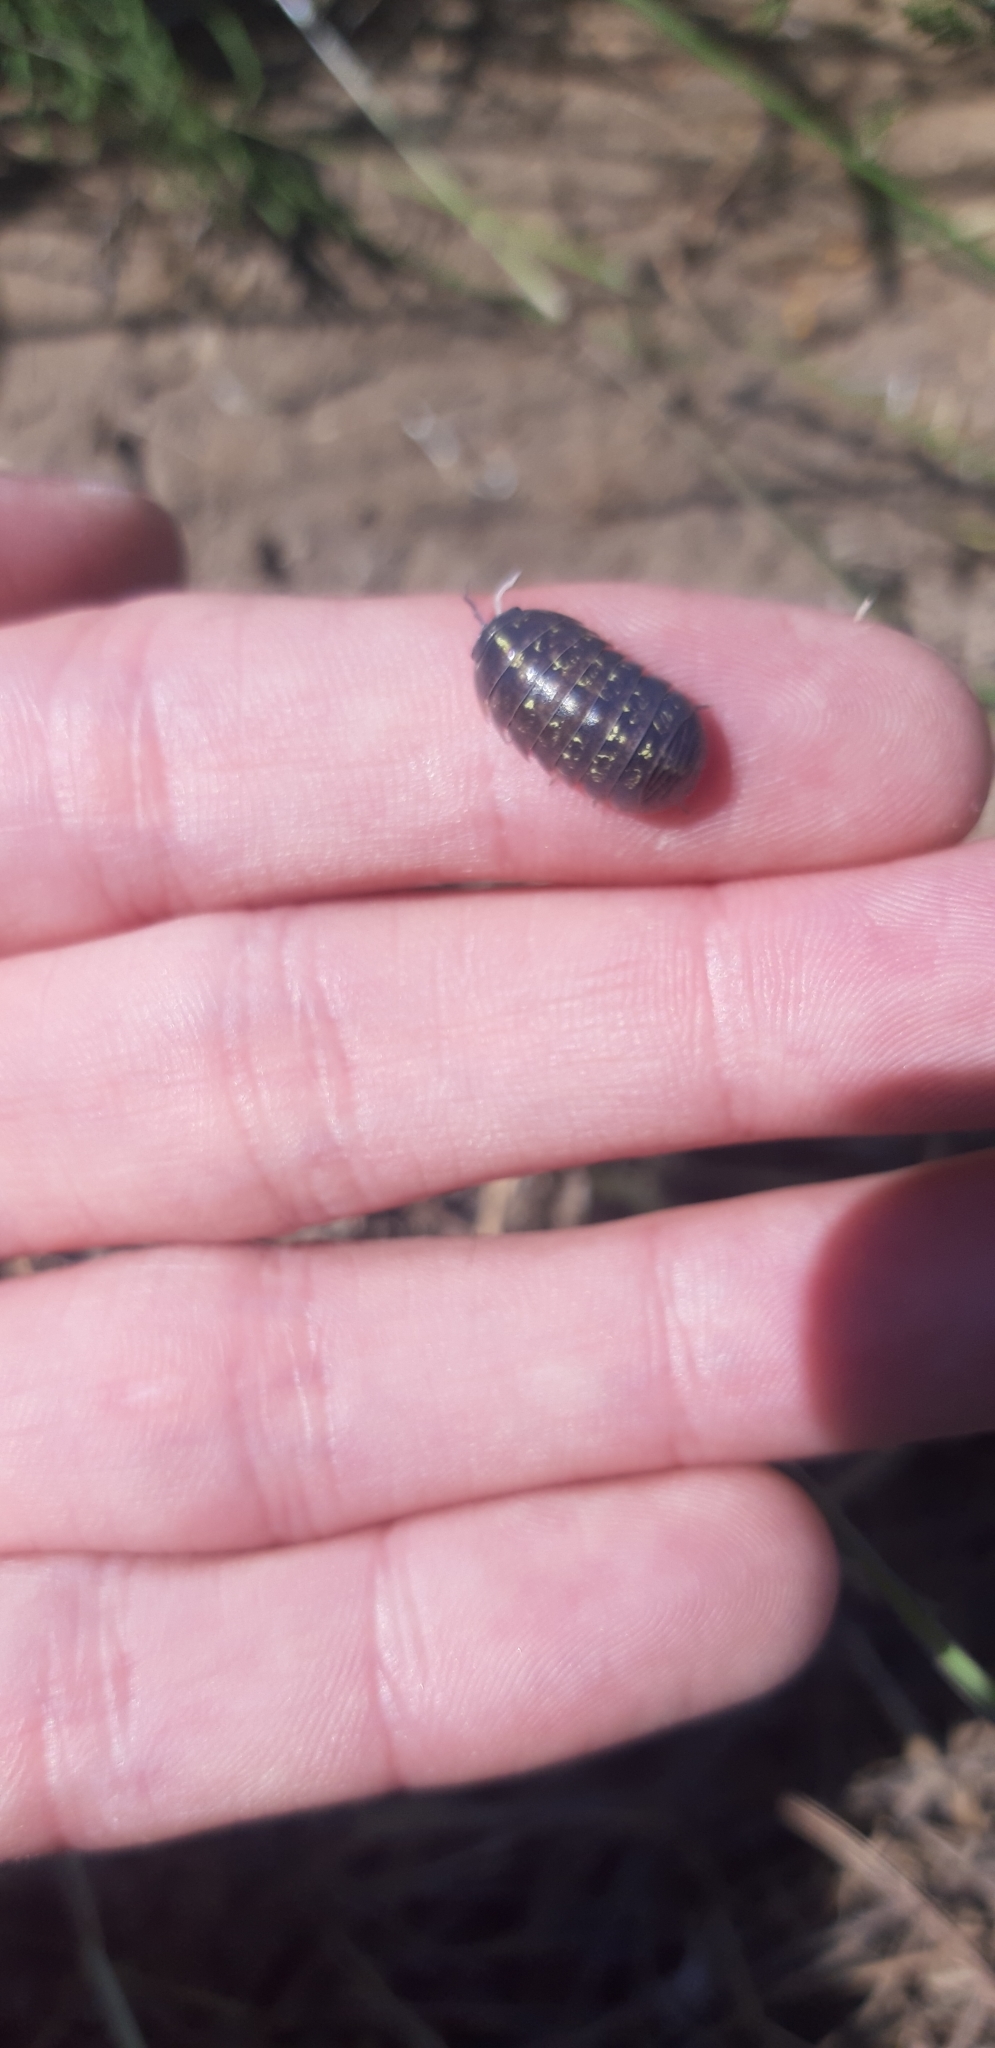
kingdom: Animalia
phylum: Arthropoda
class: Malacostraca
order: Isopoda
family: Armadillidiidae
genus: Armadillidium
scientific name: Armadillidium vulgare
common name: Common pill woodlouse
